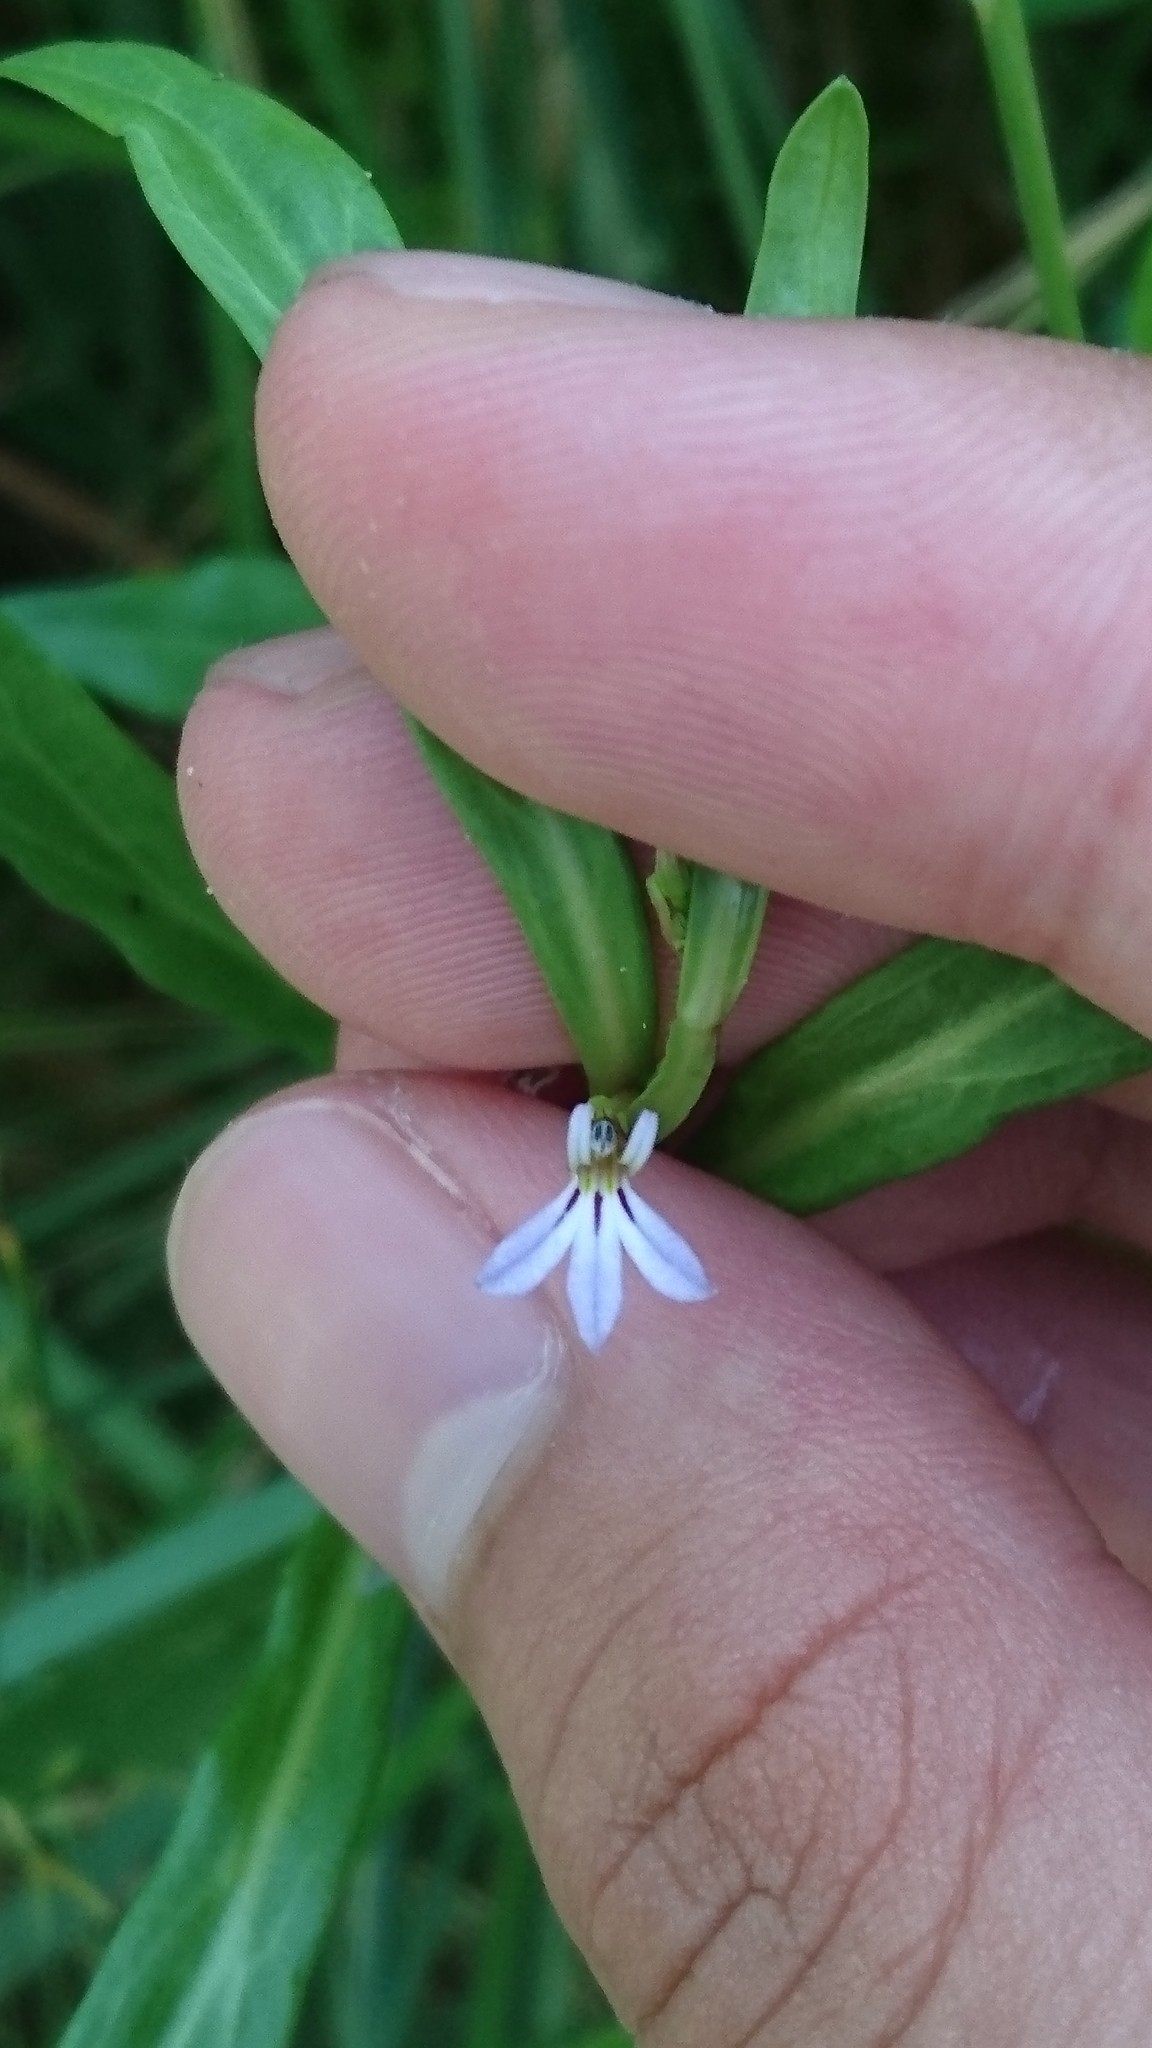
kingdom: Plantae
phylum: Tracheophyta
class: Magnoliopsida
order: Asterales
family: Campanulaceae
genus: Lobelia
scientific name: Lobelia anceps
